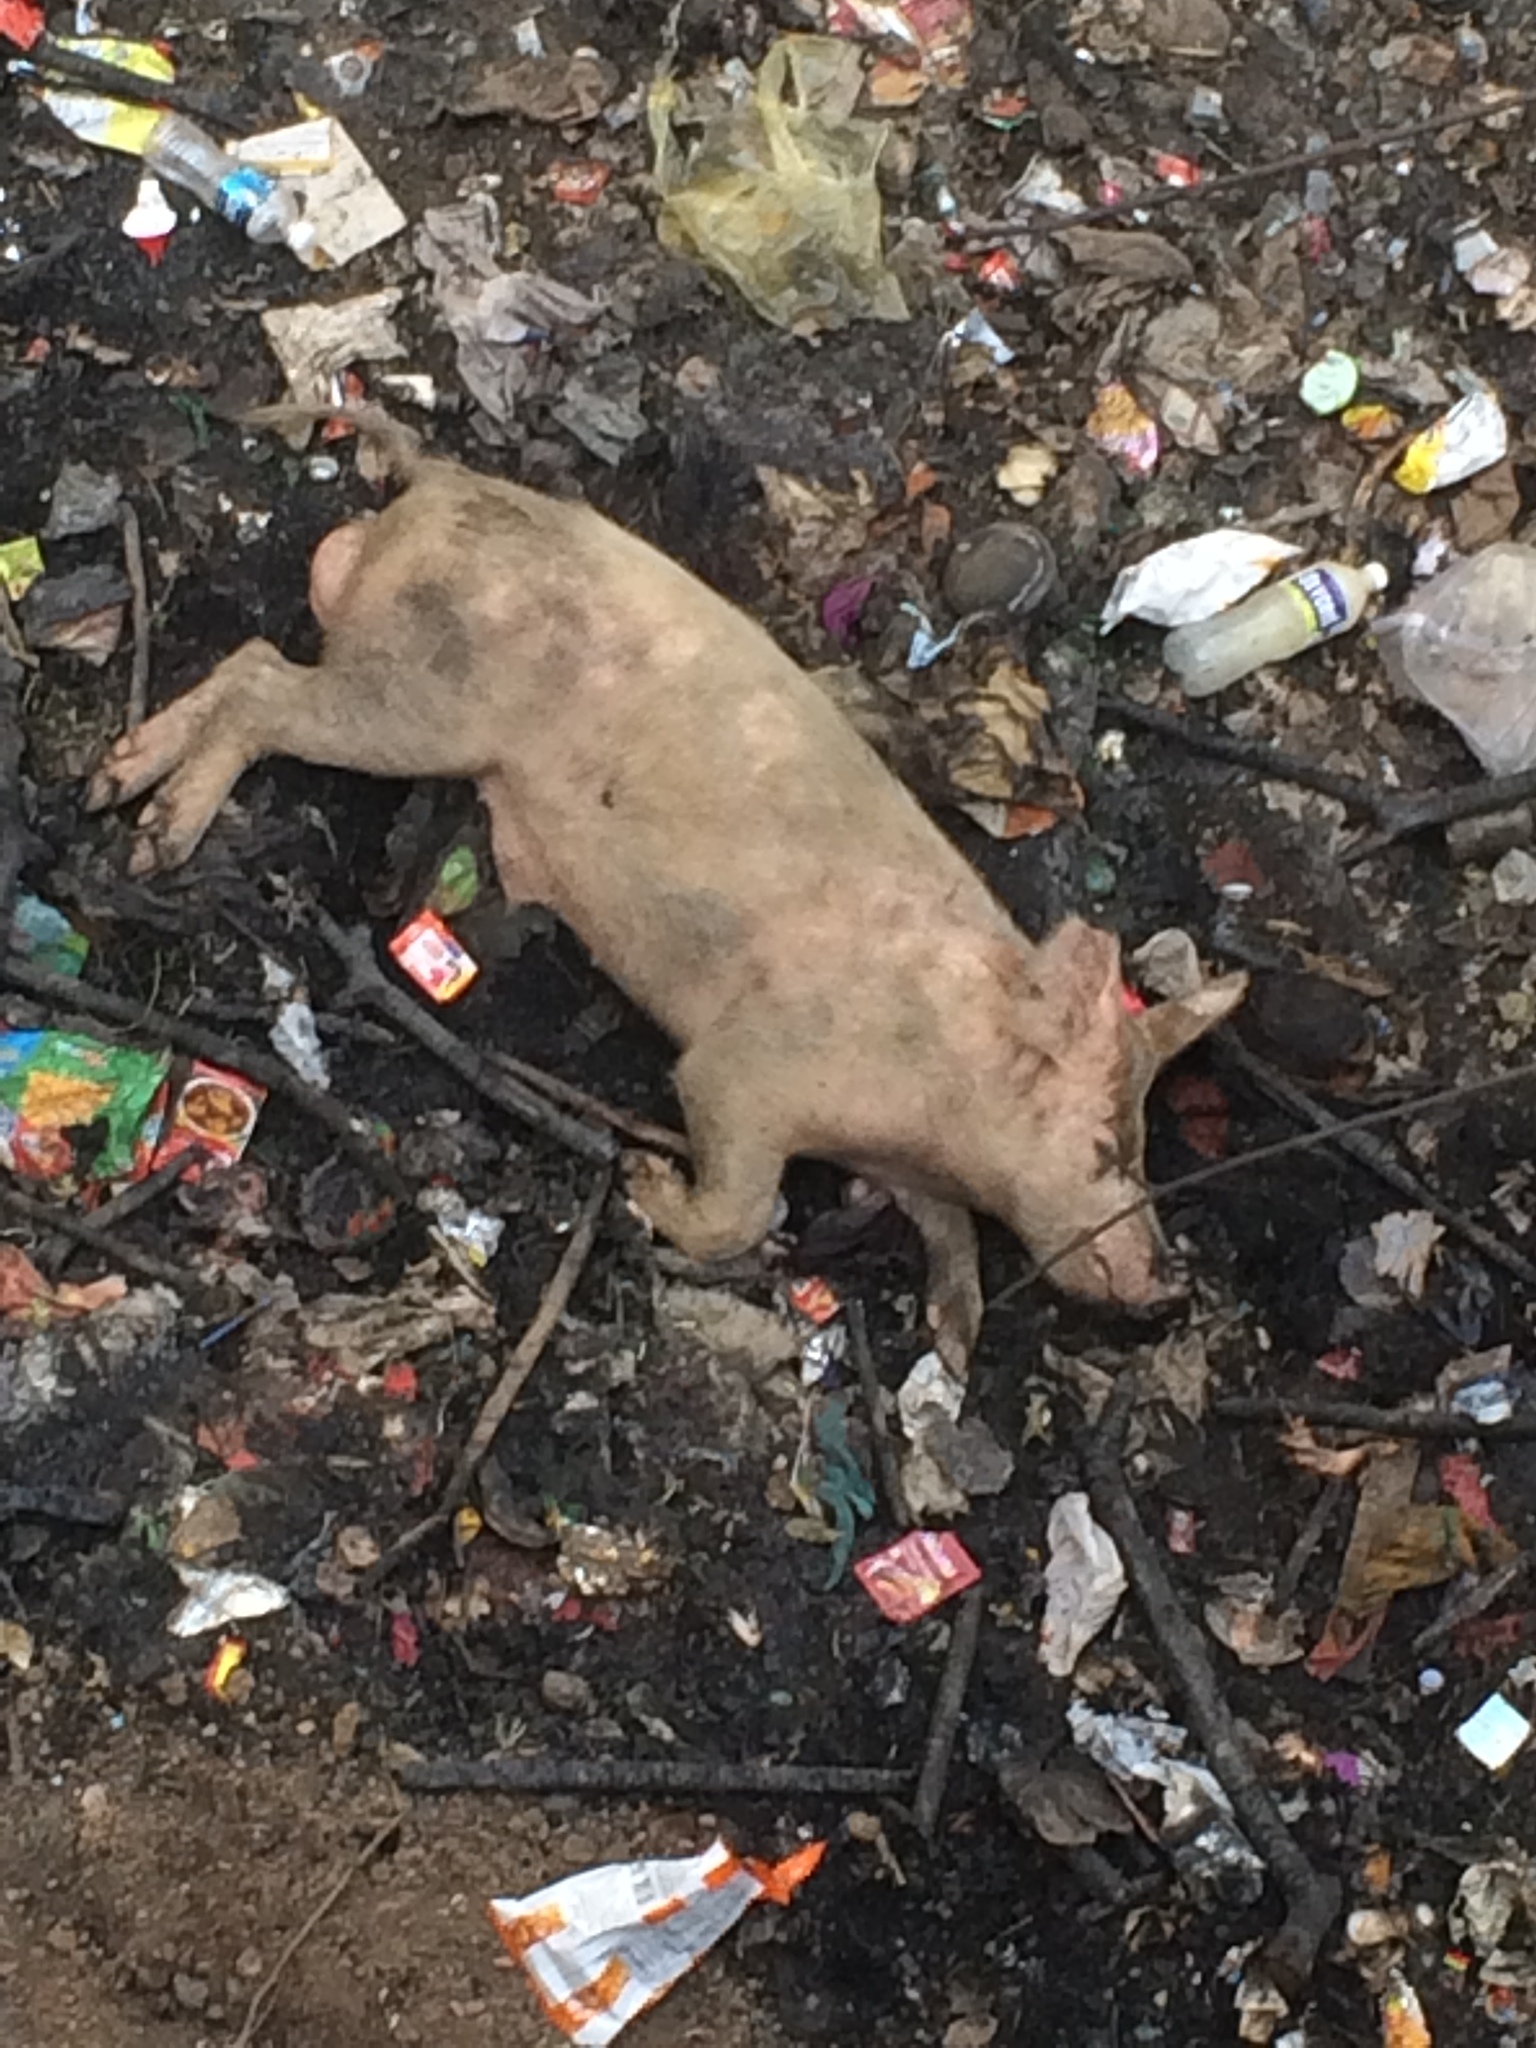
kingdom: Animalia
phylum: Chordata
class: Mammalia
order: Artiodactyla
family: Suidae
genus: Sus
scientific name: Sus scrofa
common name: Wild boar
